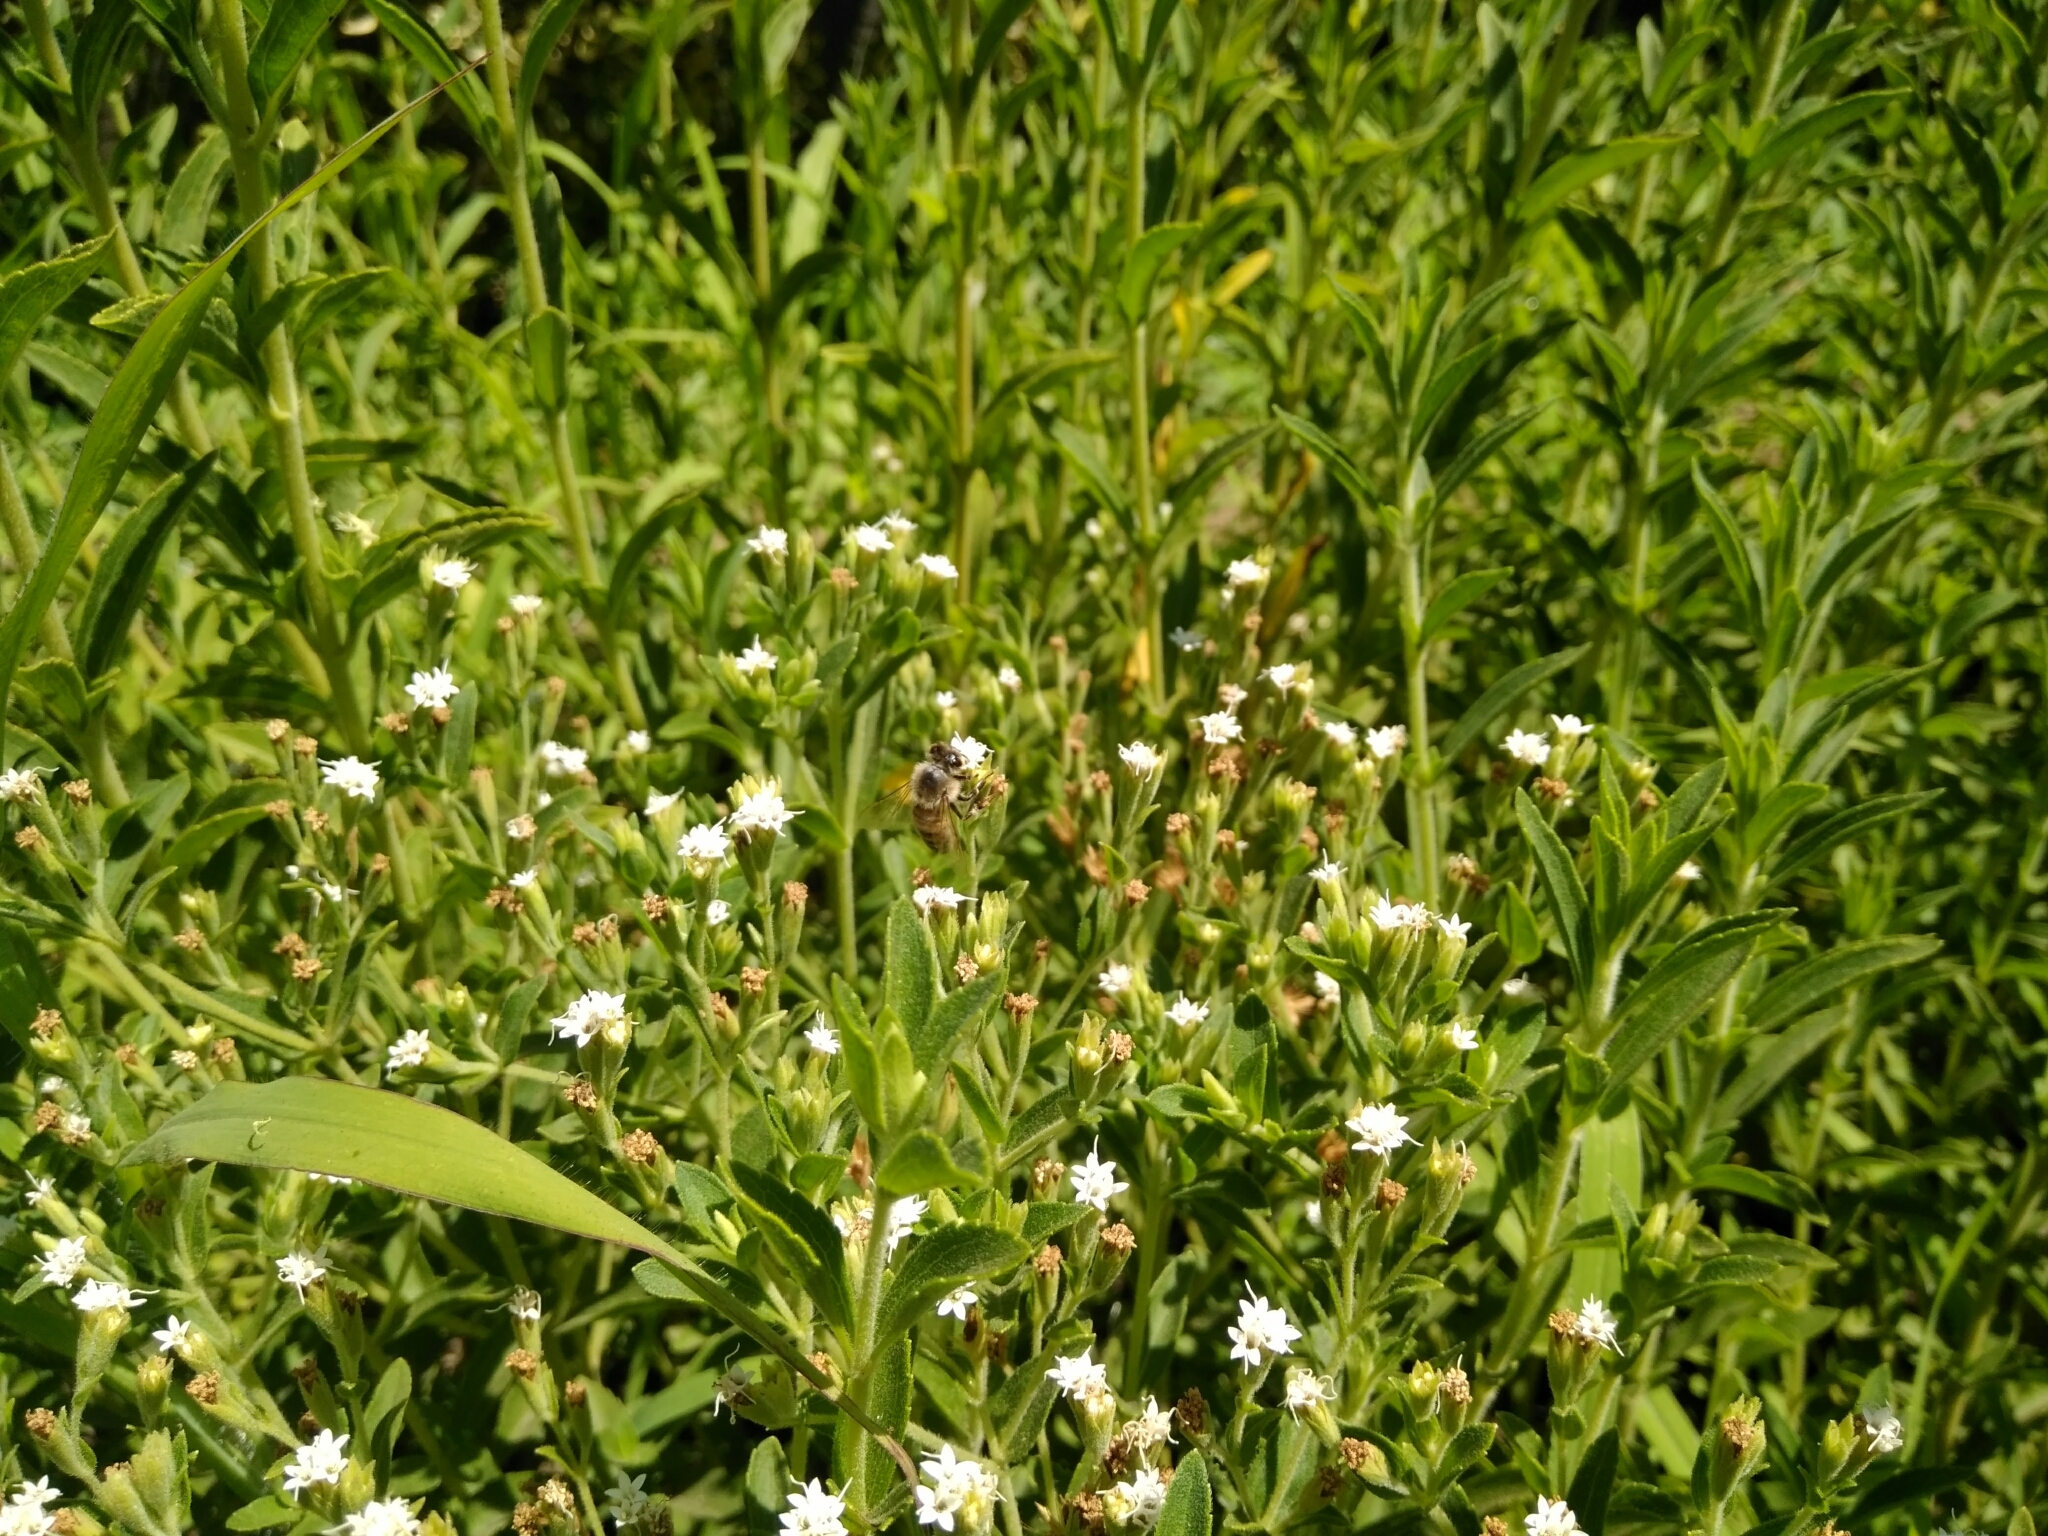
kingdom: Animalia
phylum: Arthropoda
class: Insecta
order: Hymenoptera
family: Apidae
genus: Apis
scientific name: Apis mellifera
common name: Honey bee
